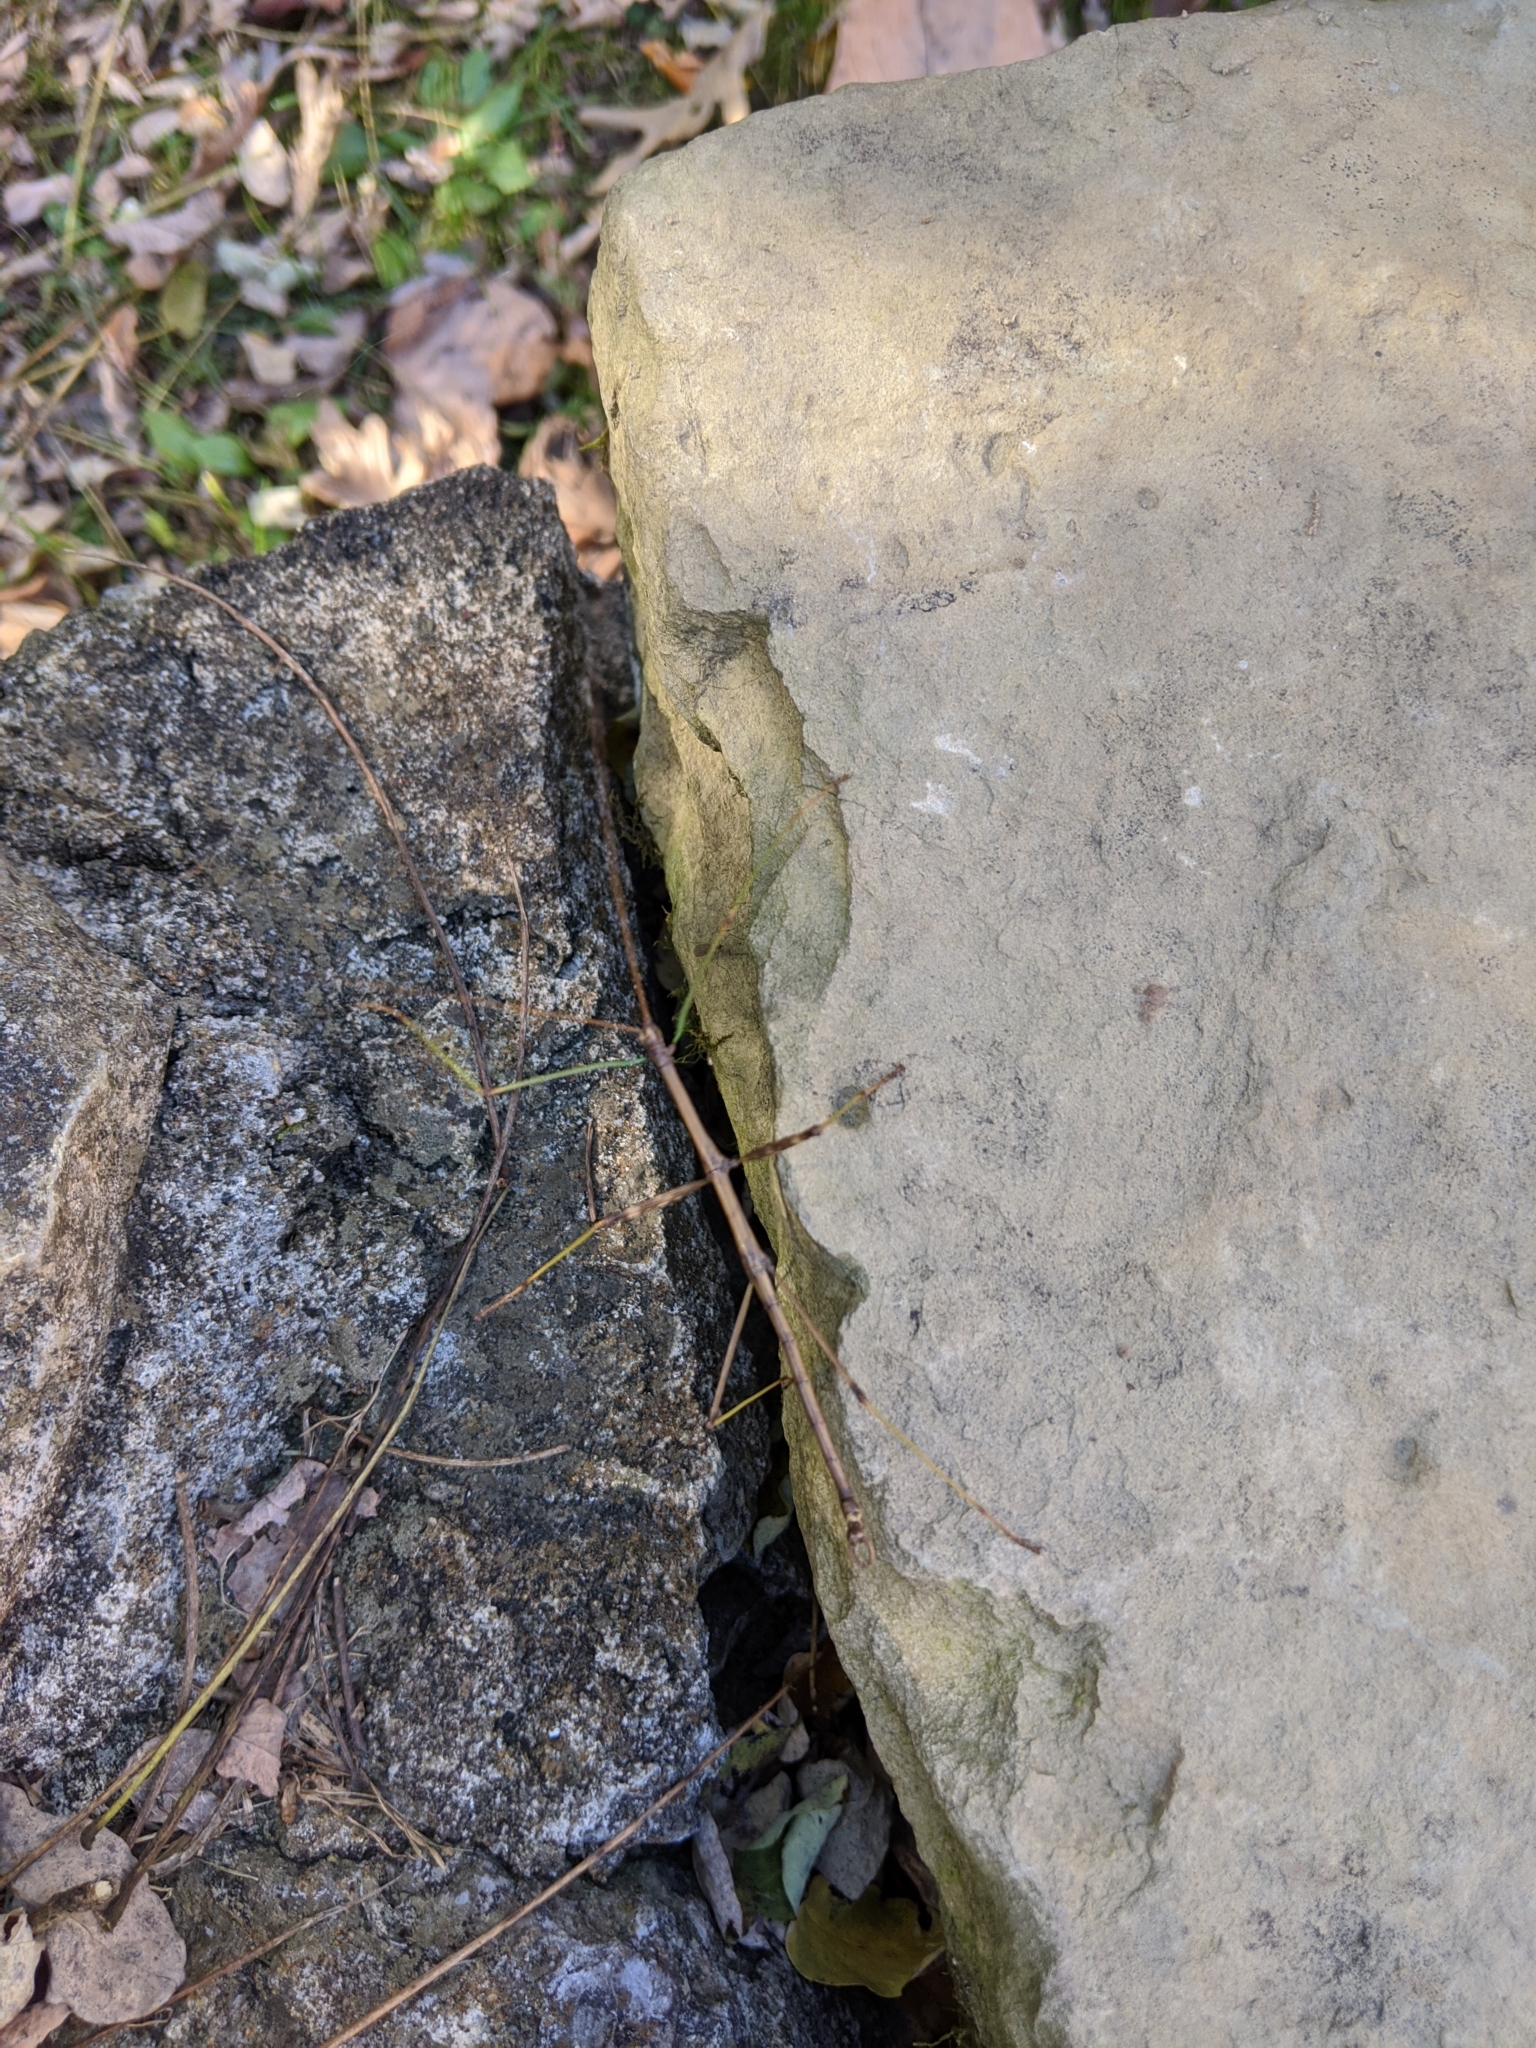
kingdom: Animalia
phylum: Arthropoda
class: Insecta
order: Phasmida
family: Diapheromeridae
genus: Diapheromera
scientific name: Diapheromera femorata
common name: Common american walkingstick
